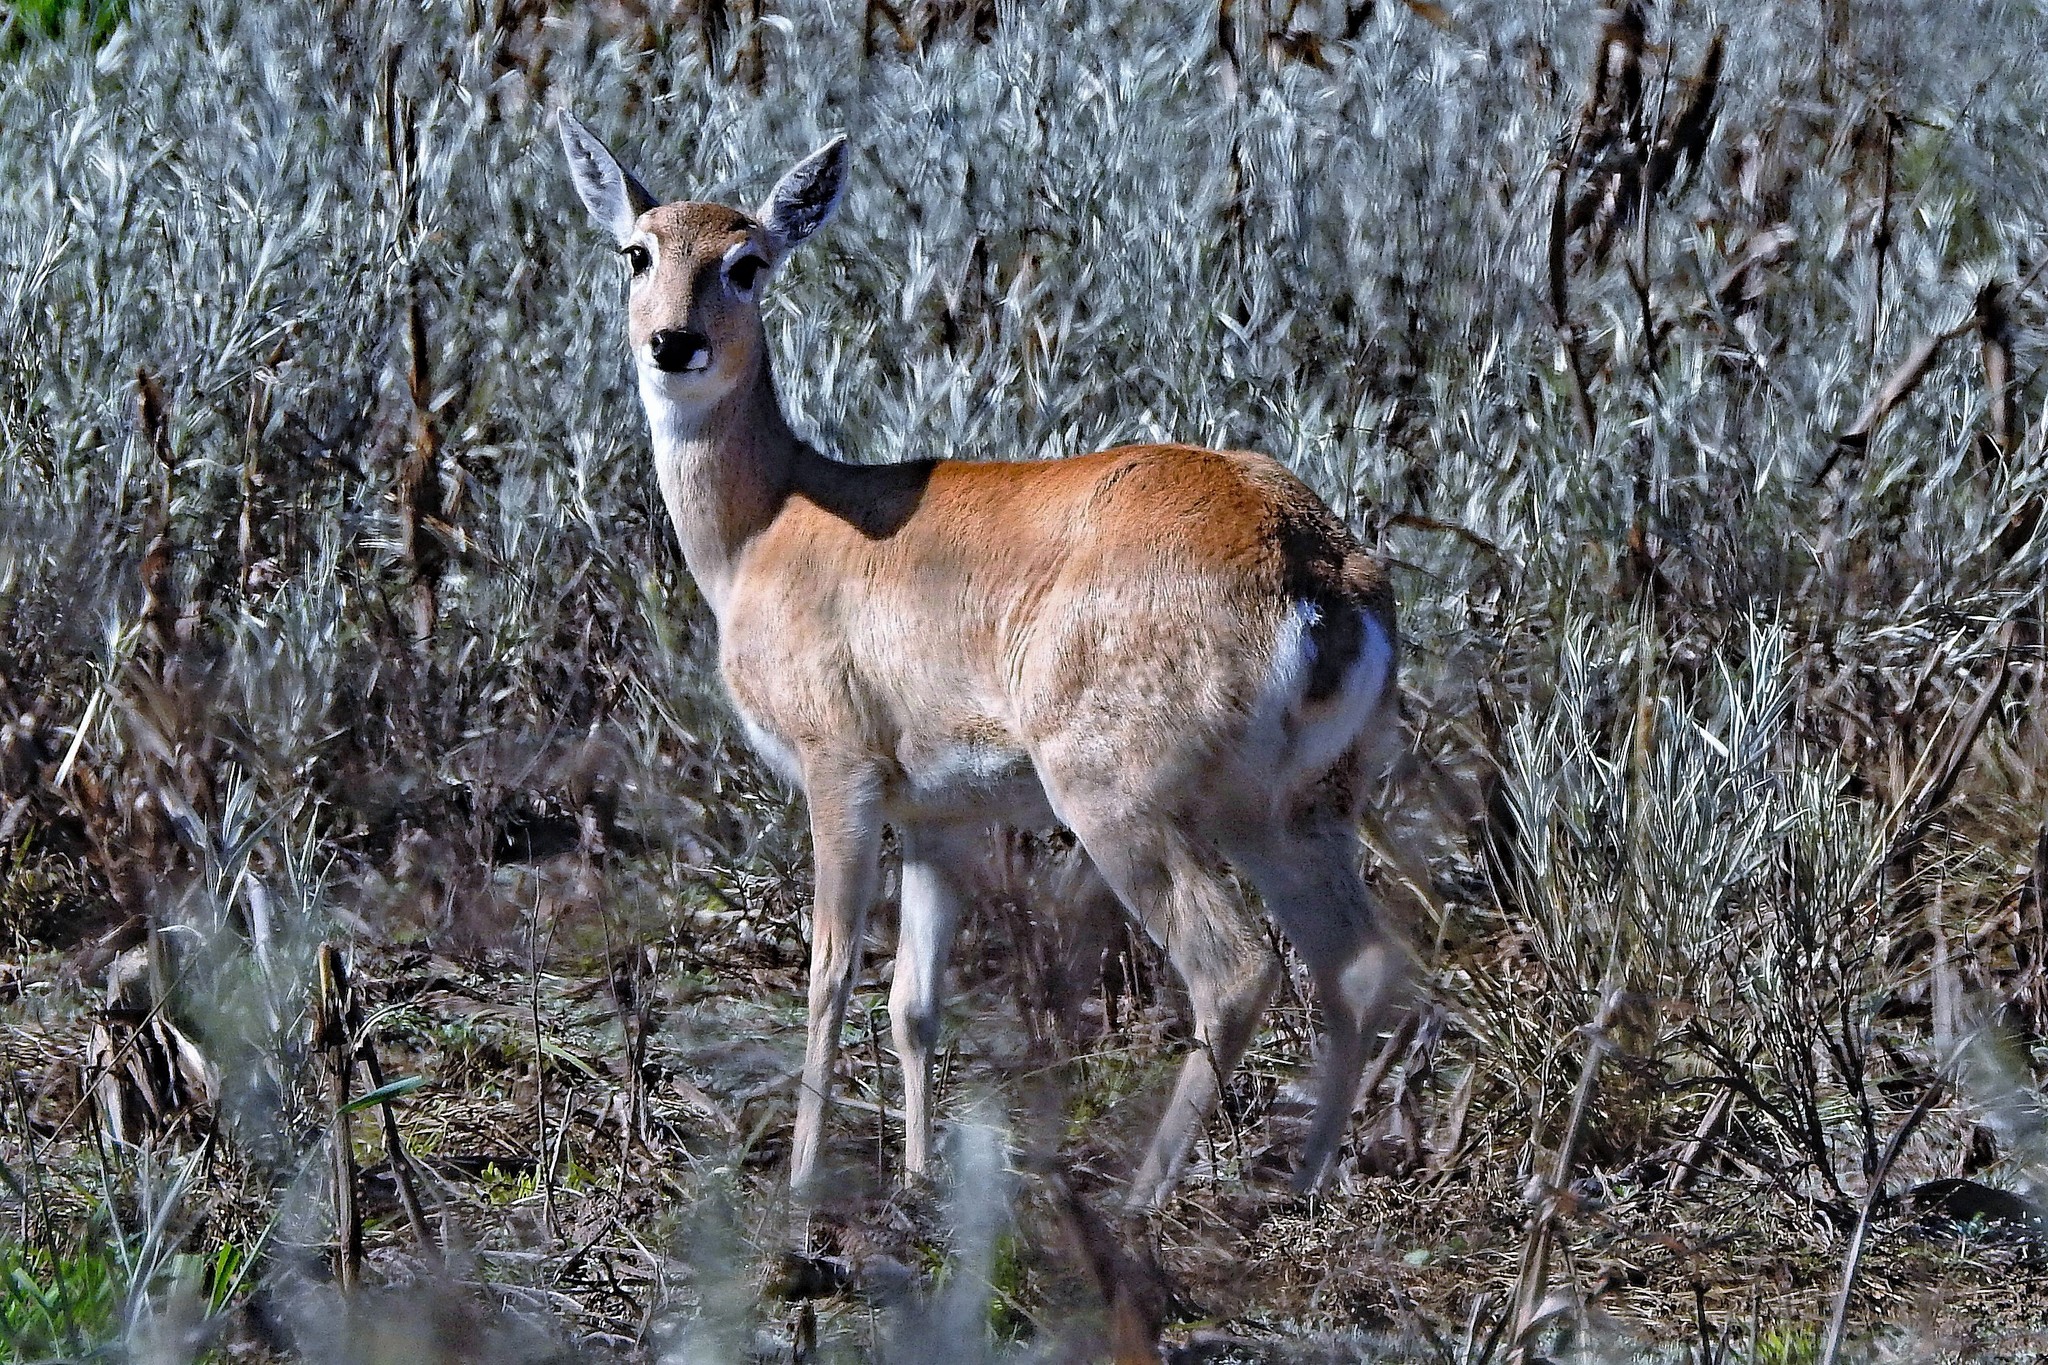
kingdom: Animalia
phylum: Chordata
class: Mammalia
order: Artiodactyla
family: Cervidae
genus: Ozotoceros
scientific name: Ozotoceros bezoarticus
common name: Pampas deer
